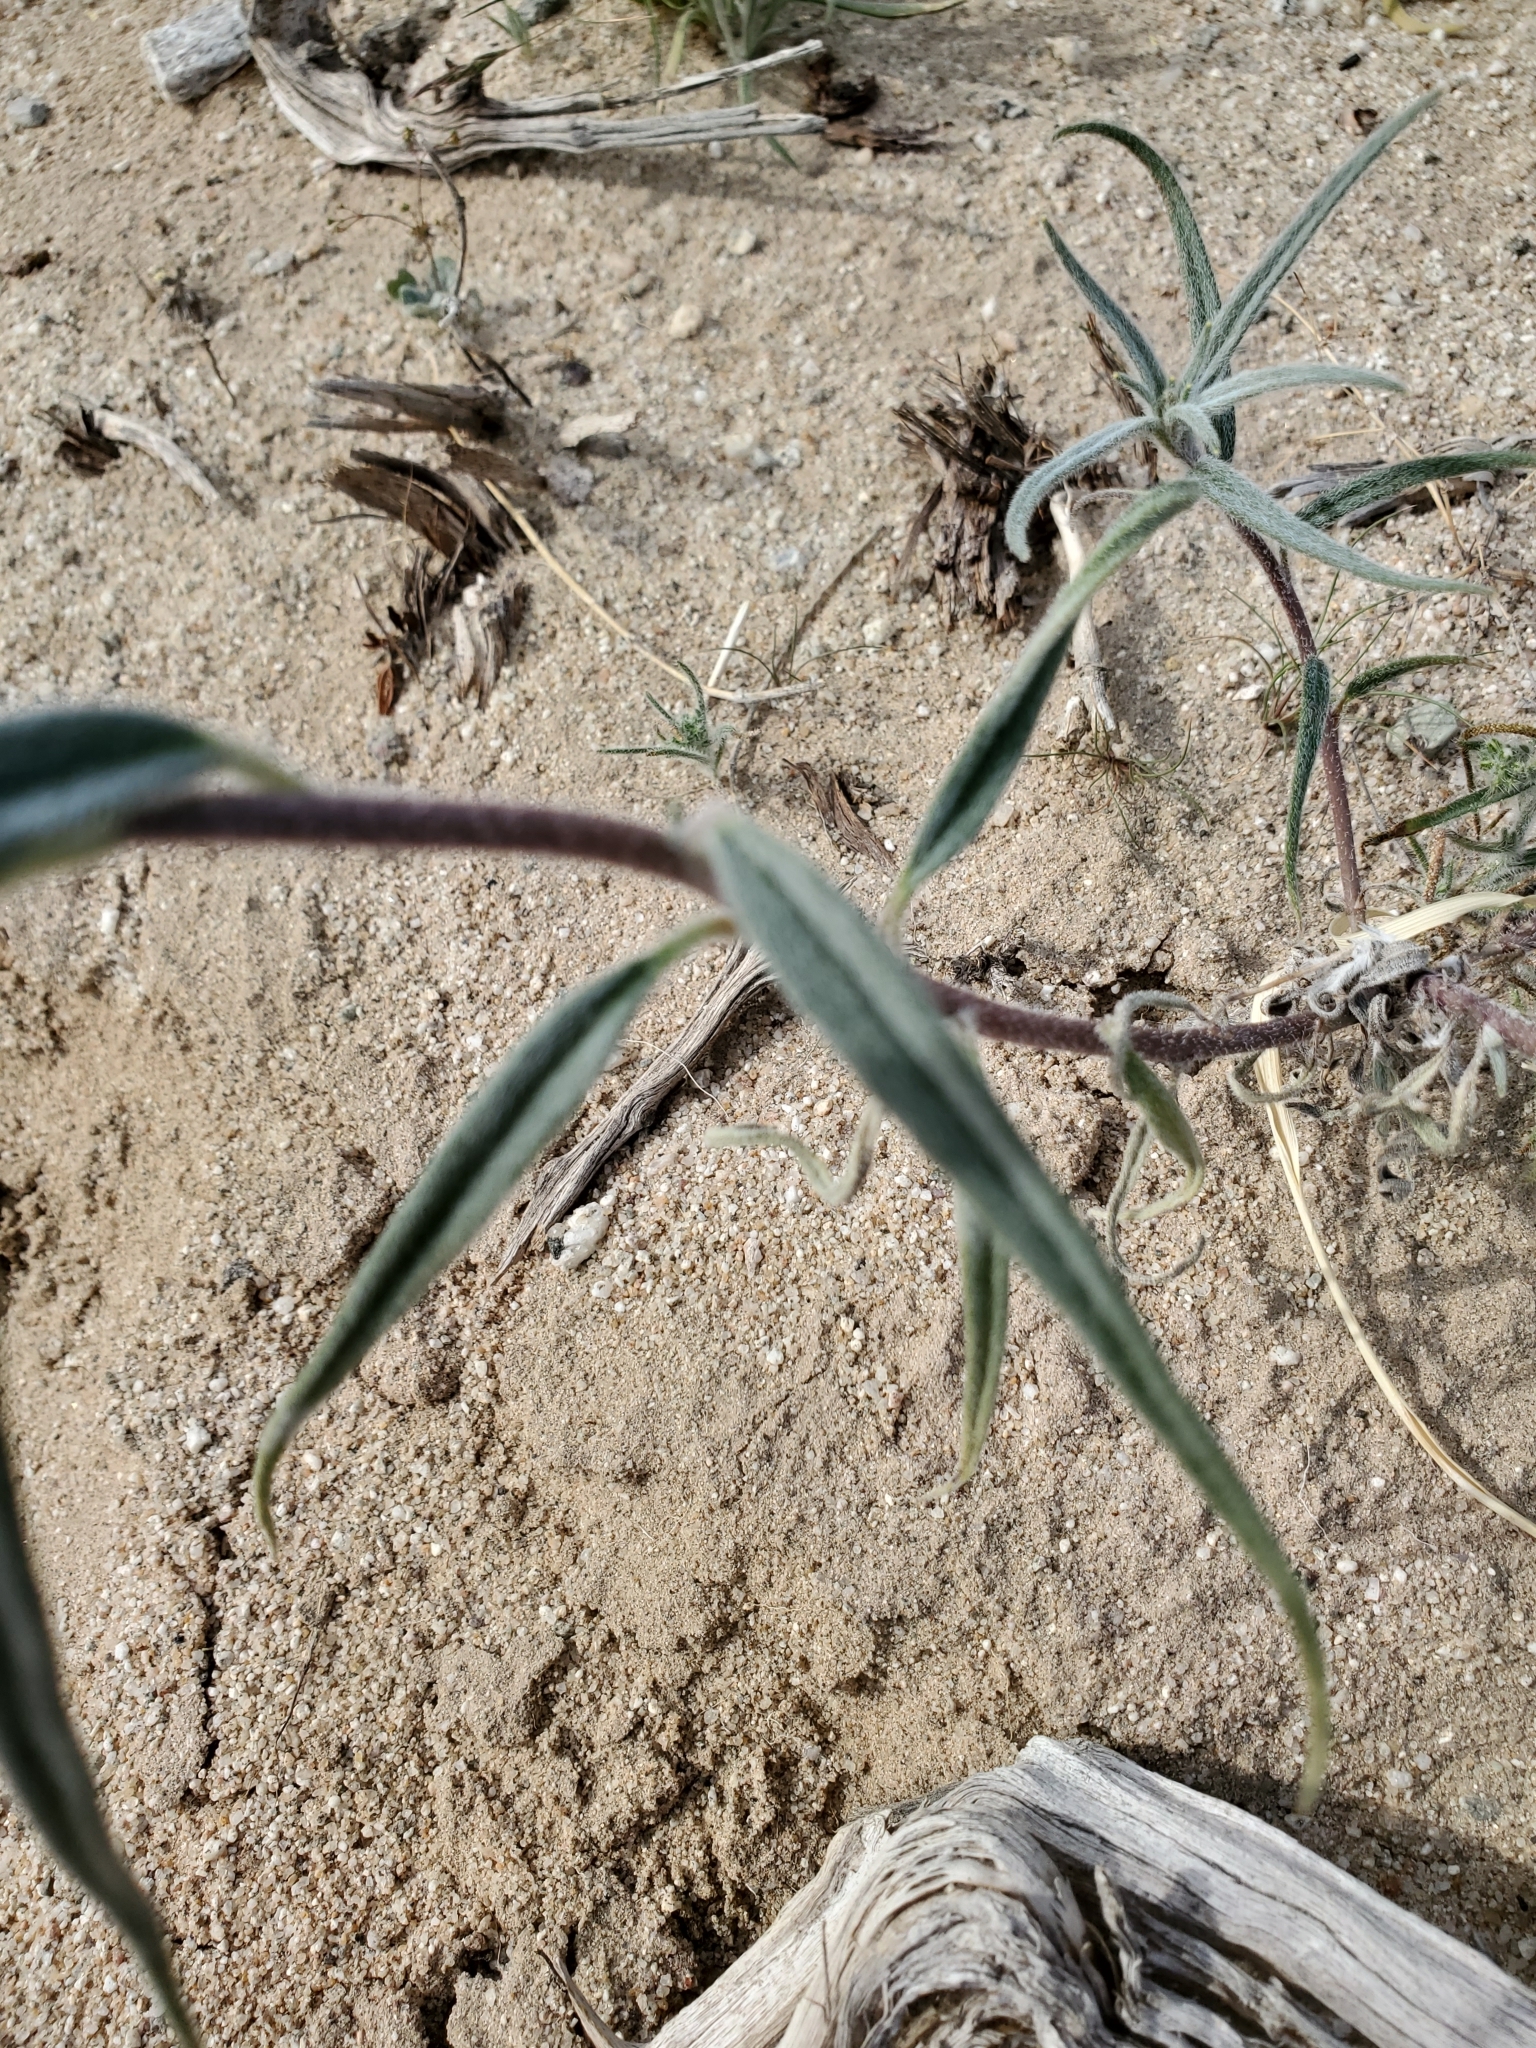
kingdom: Plantae
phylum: Tracheophyta
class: Magnoliopsida
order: Asterales
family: Asteraceae
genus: Palafoxia
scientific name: Palafoxia arida
